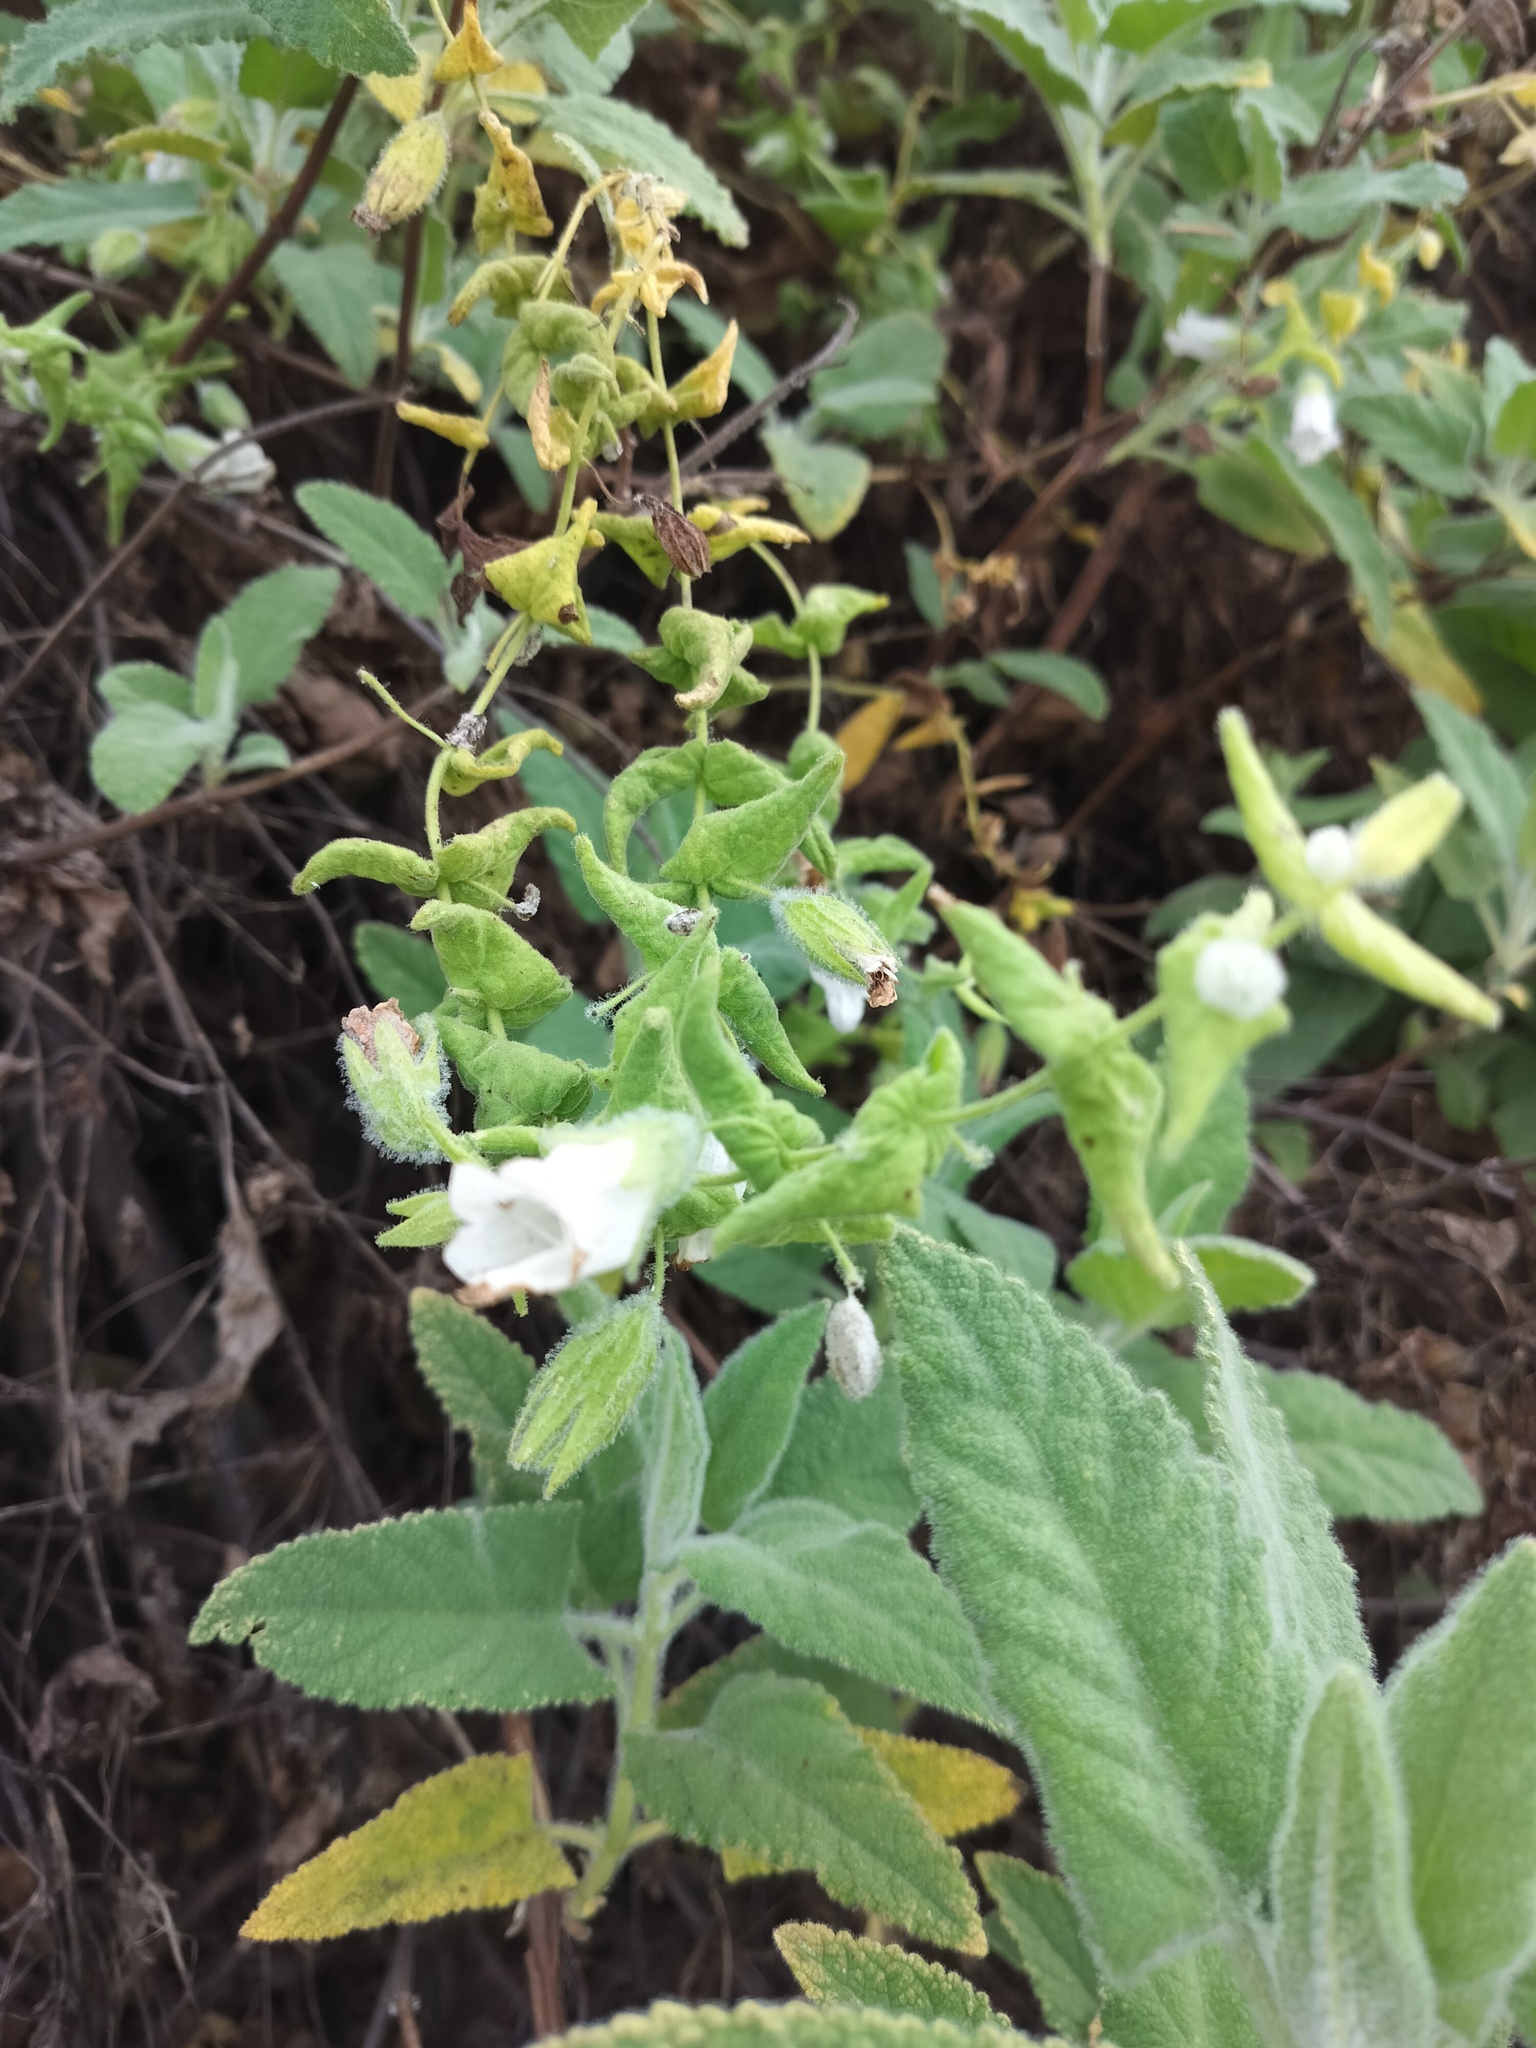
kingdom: Plantae
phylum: Tracheophyta
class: Magnoliopsida
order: Lamiales
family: Lamiaceae
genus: Lepechinia
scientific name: Lepechinia fragrans
